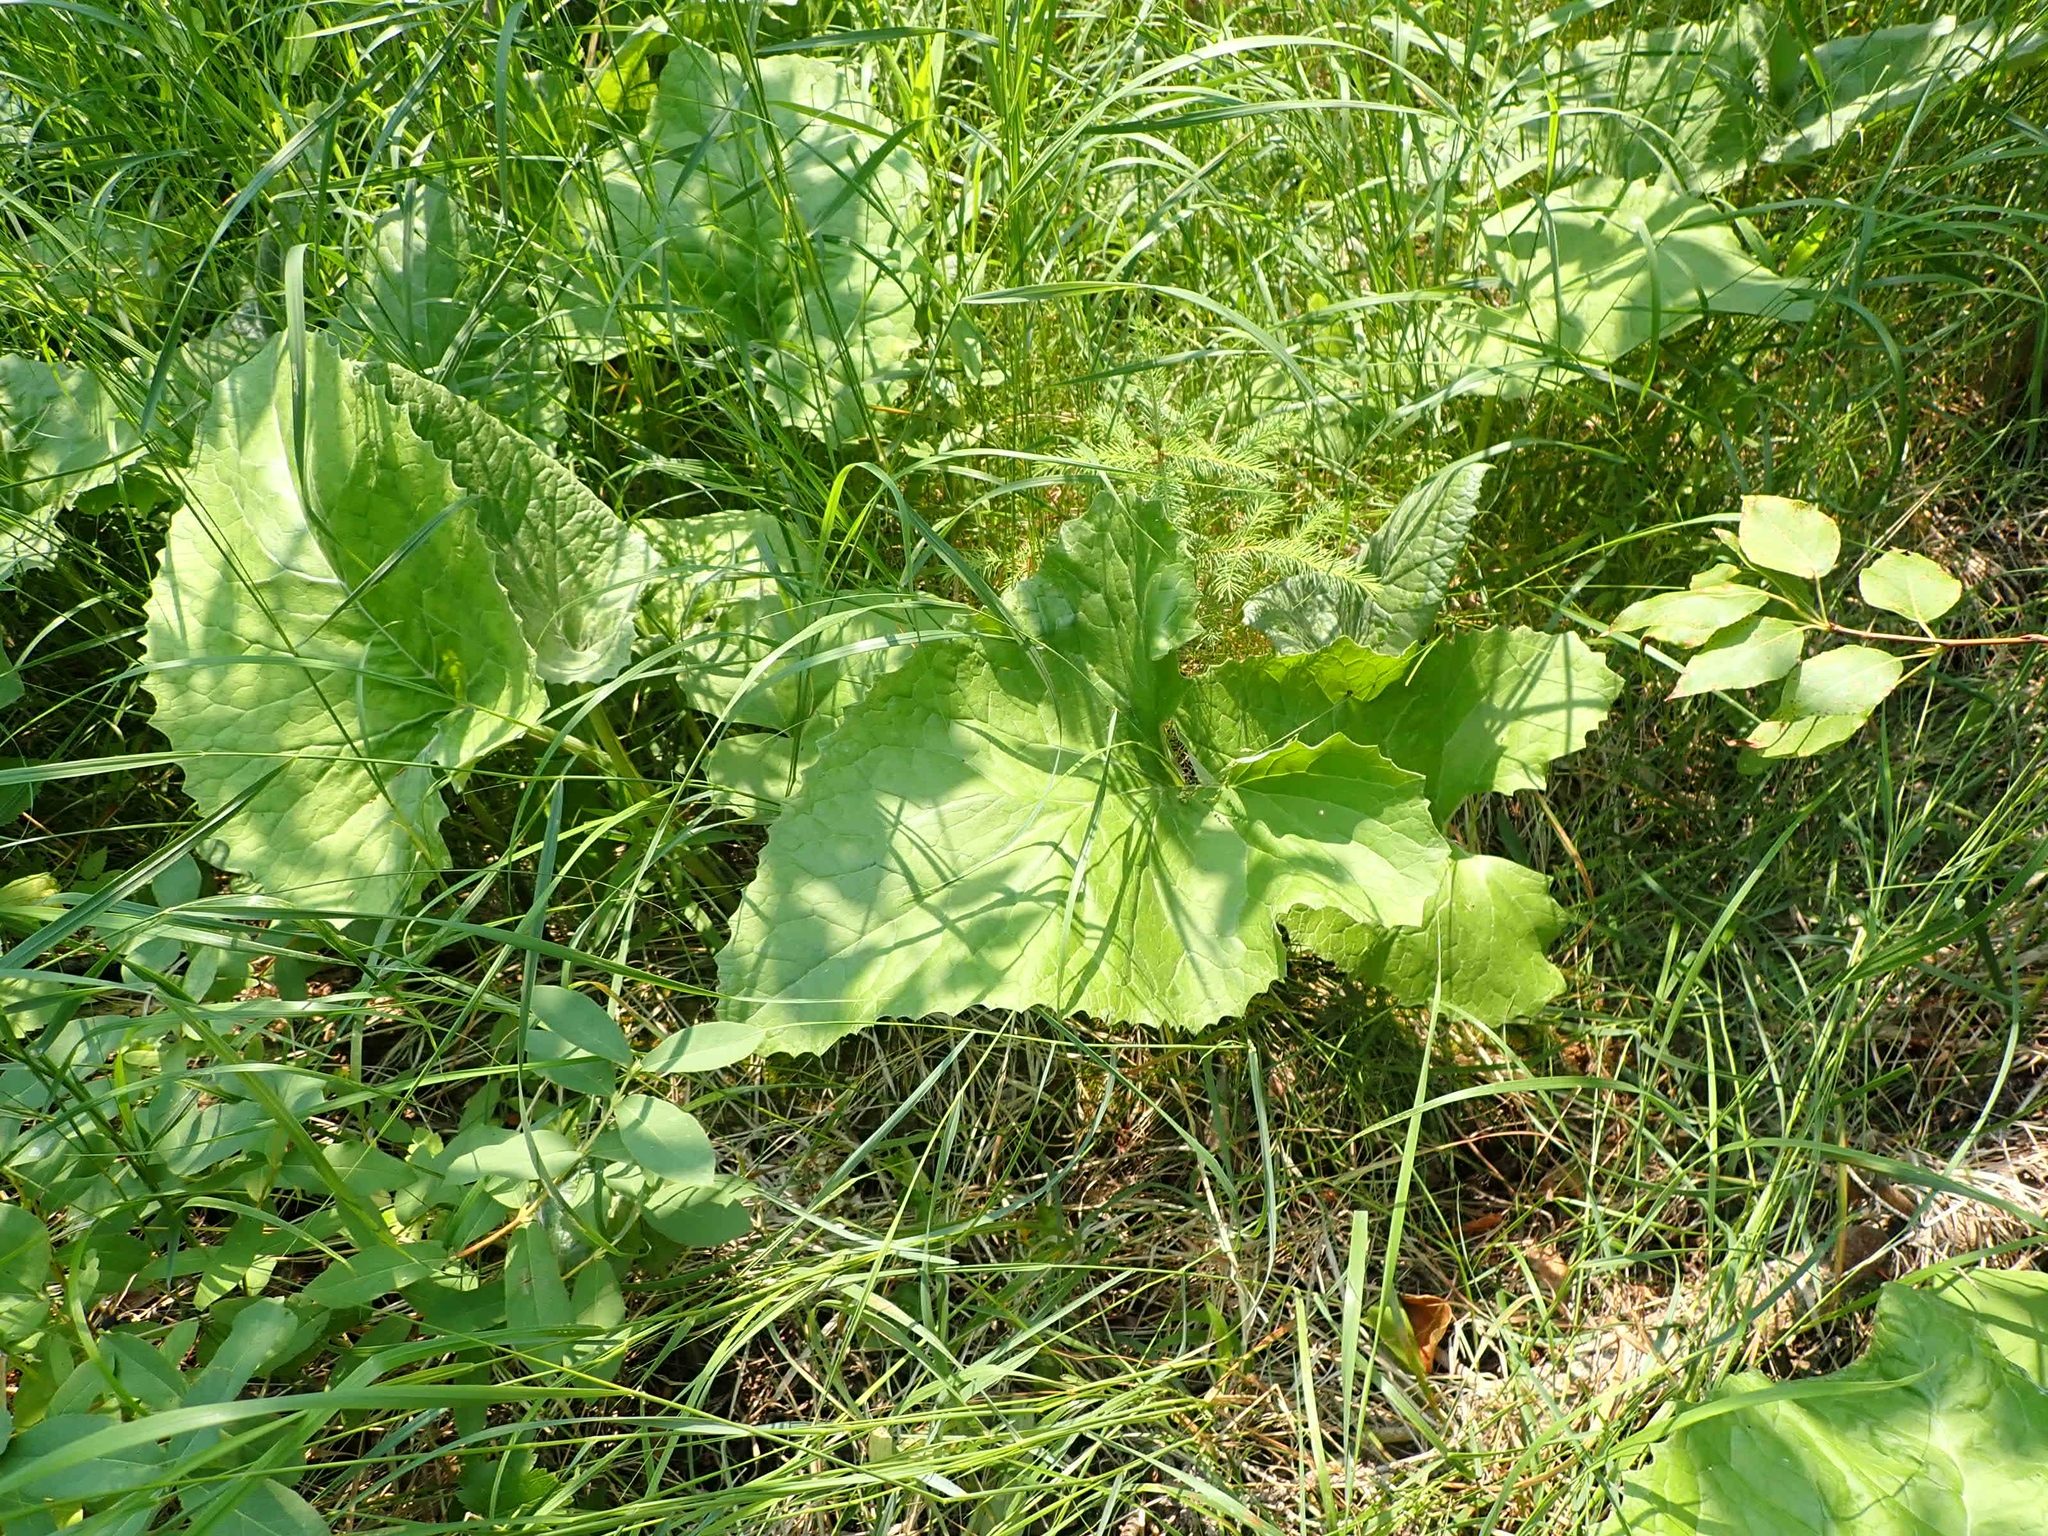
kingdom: Plantae
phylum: Tracheophyta
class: Magnoliopsida
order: Asterales
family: Asteraceae
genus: Petasites
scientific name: Petasites frigidus
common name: Arctic butterbur
